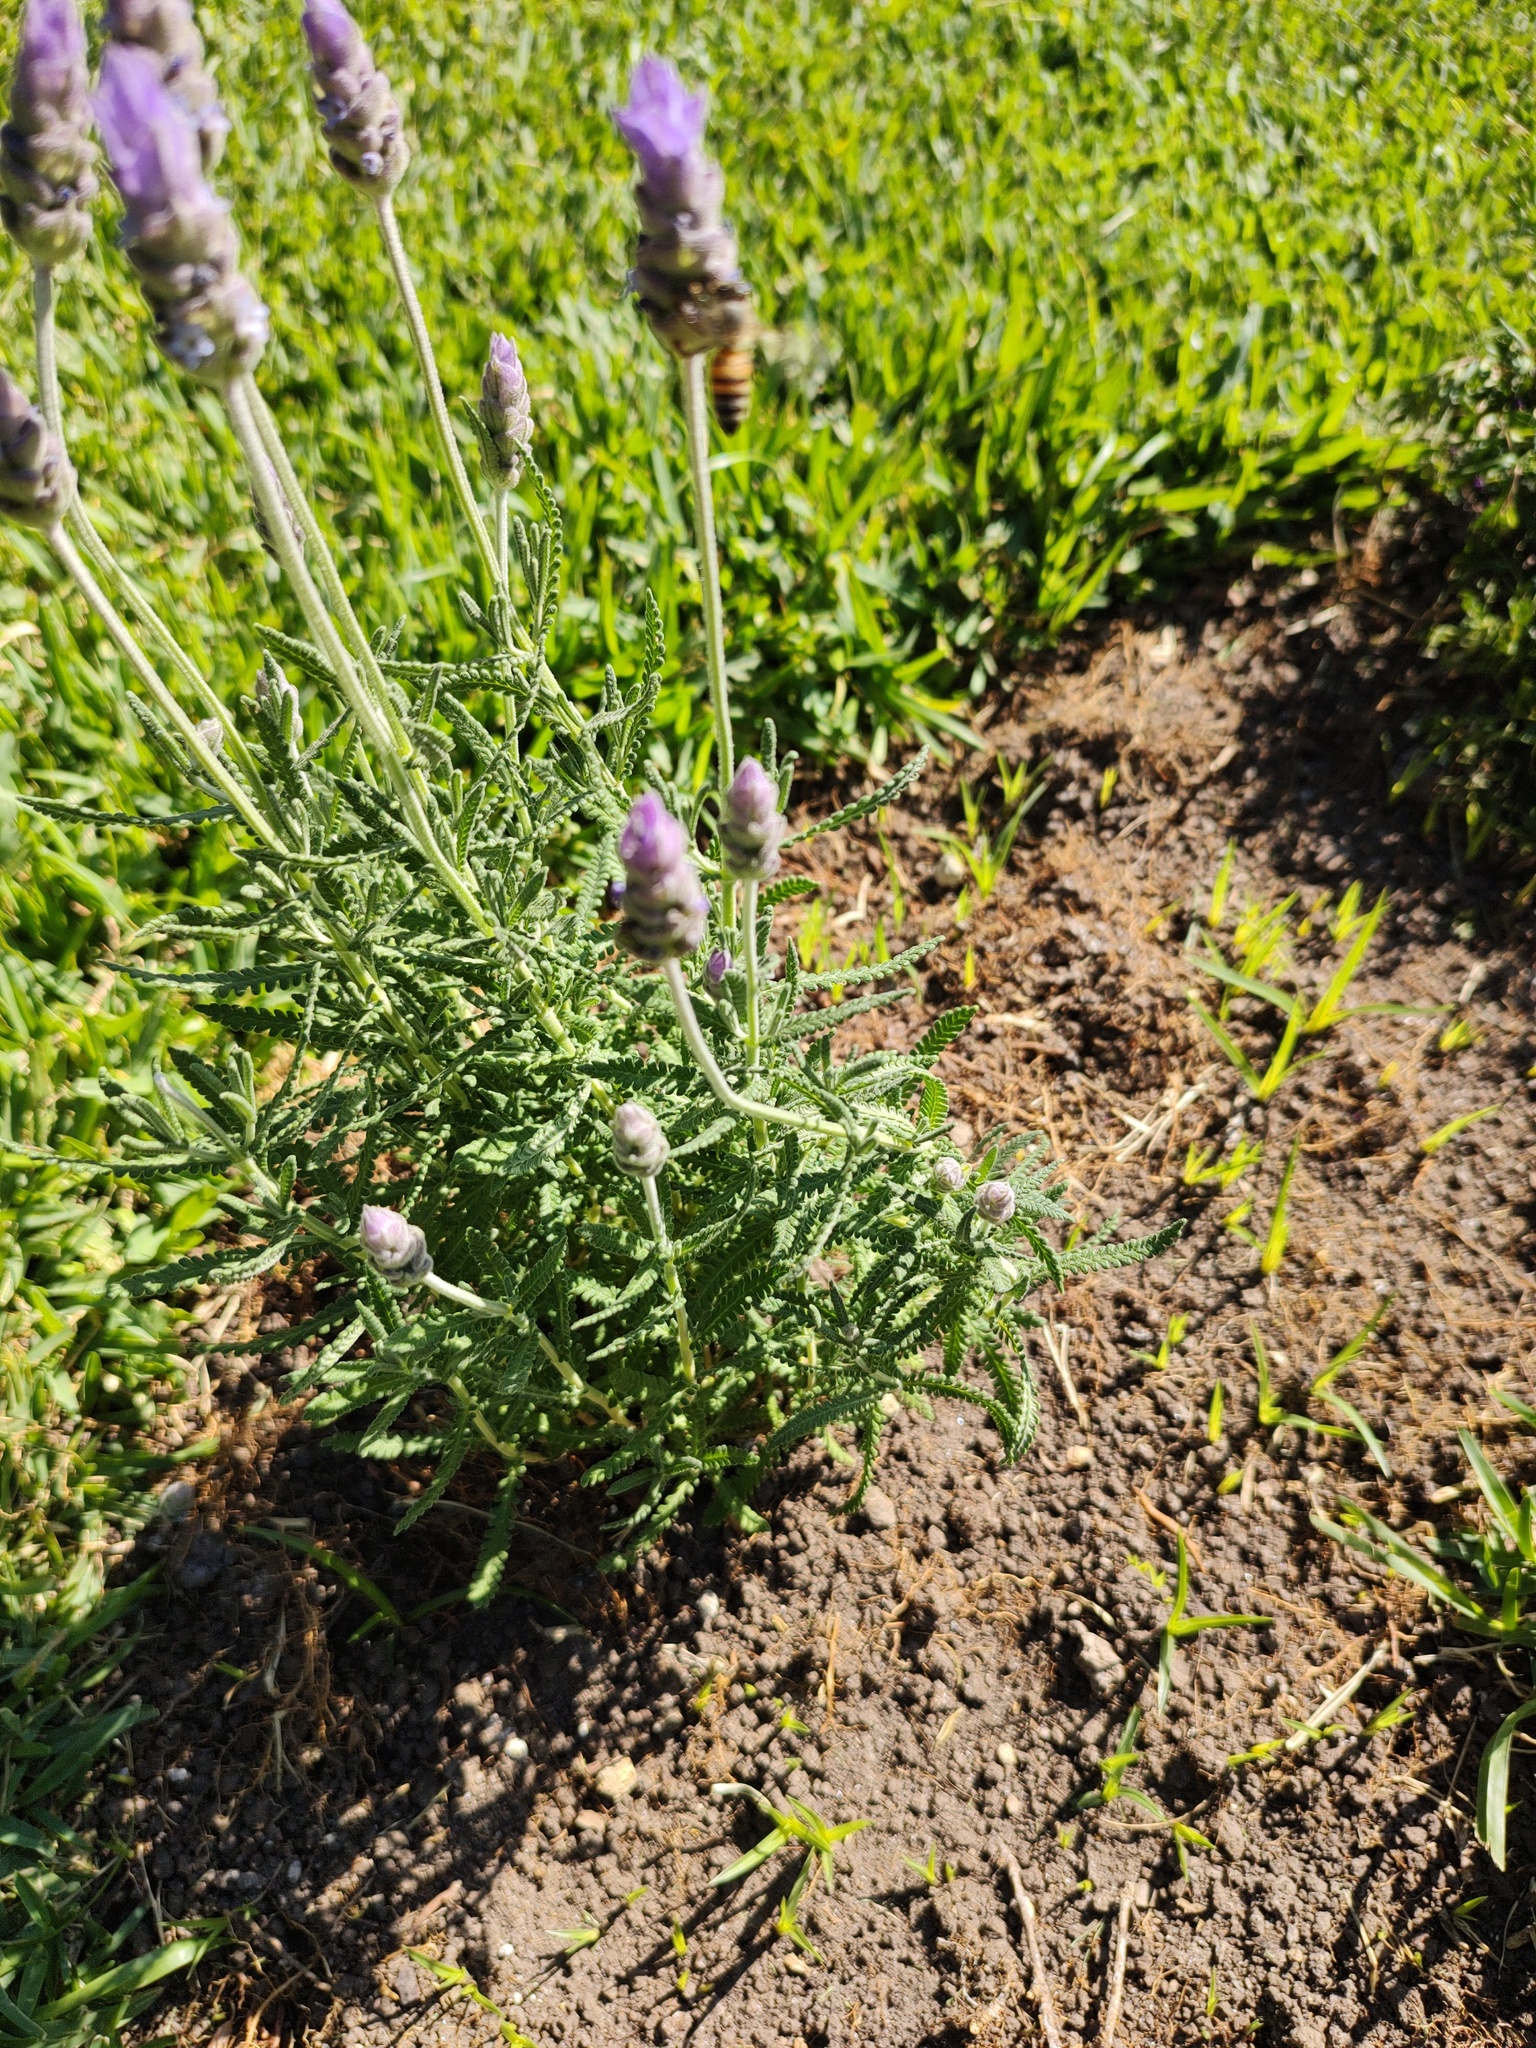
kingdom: Animalia
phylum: Arthropoda
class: Insecta
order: Hymenoptera
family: Apidae
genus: Apis
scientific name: Apis mellifera
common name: Honey bee
